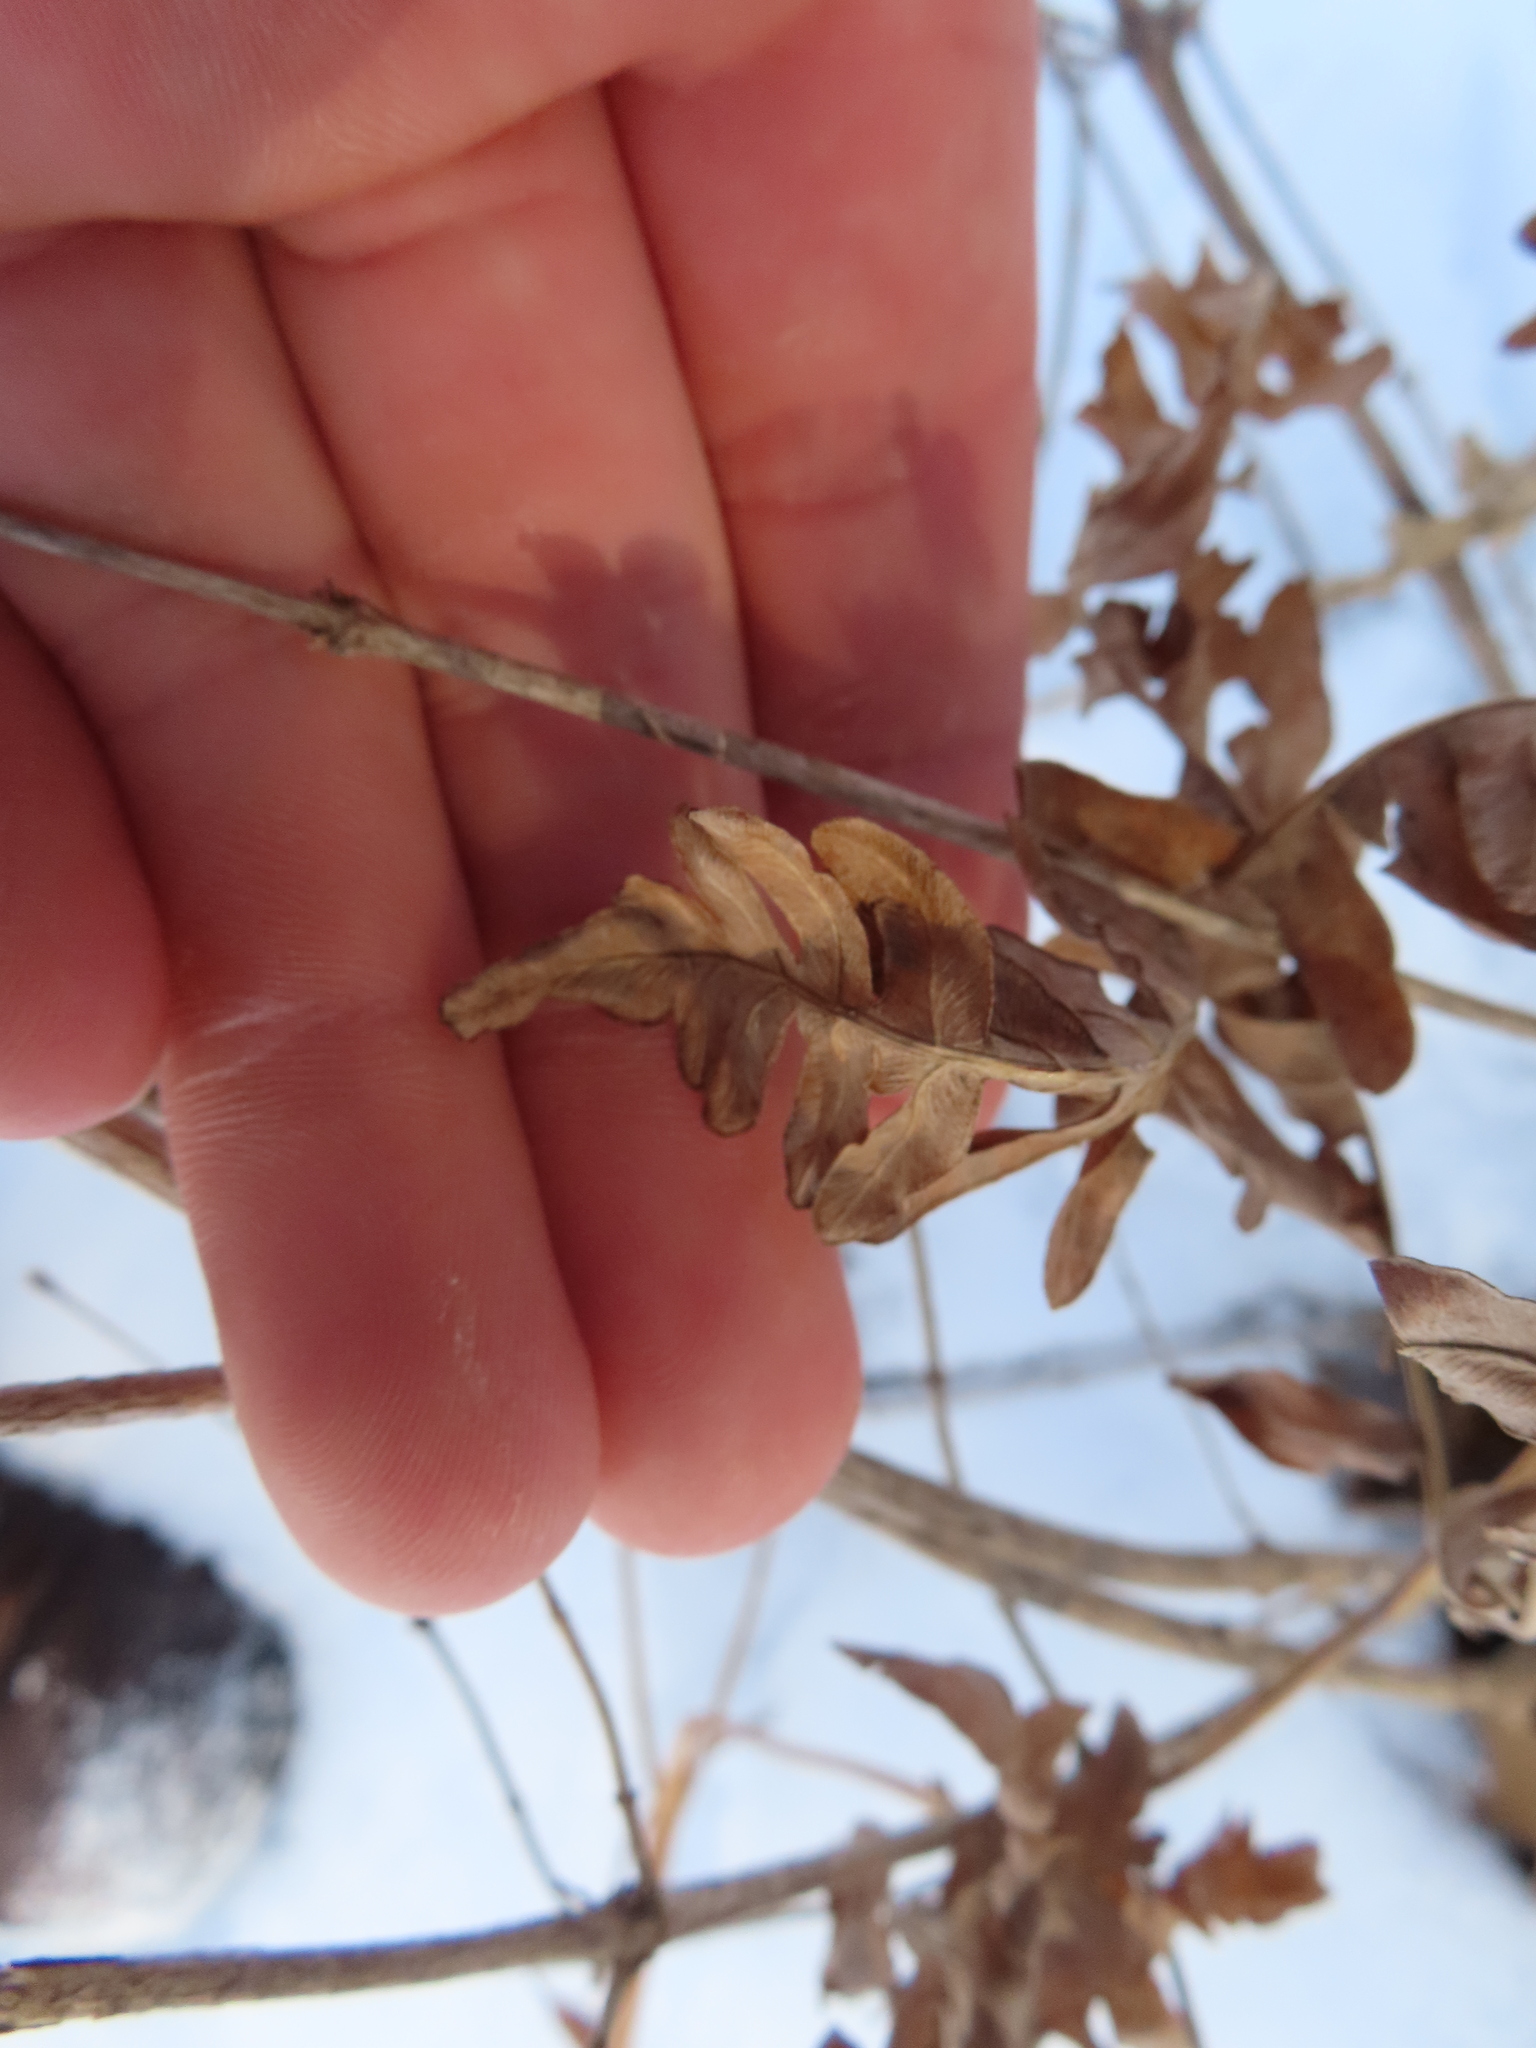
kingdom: Plantae
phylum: Tracheophyta
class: Polypodiopsida
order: Polypodiales
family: Dennstaedtiaceae
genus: Pteridium
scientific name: Pteridium aquilinum
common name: Bracken
